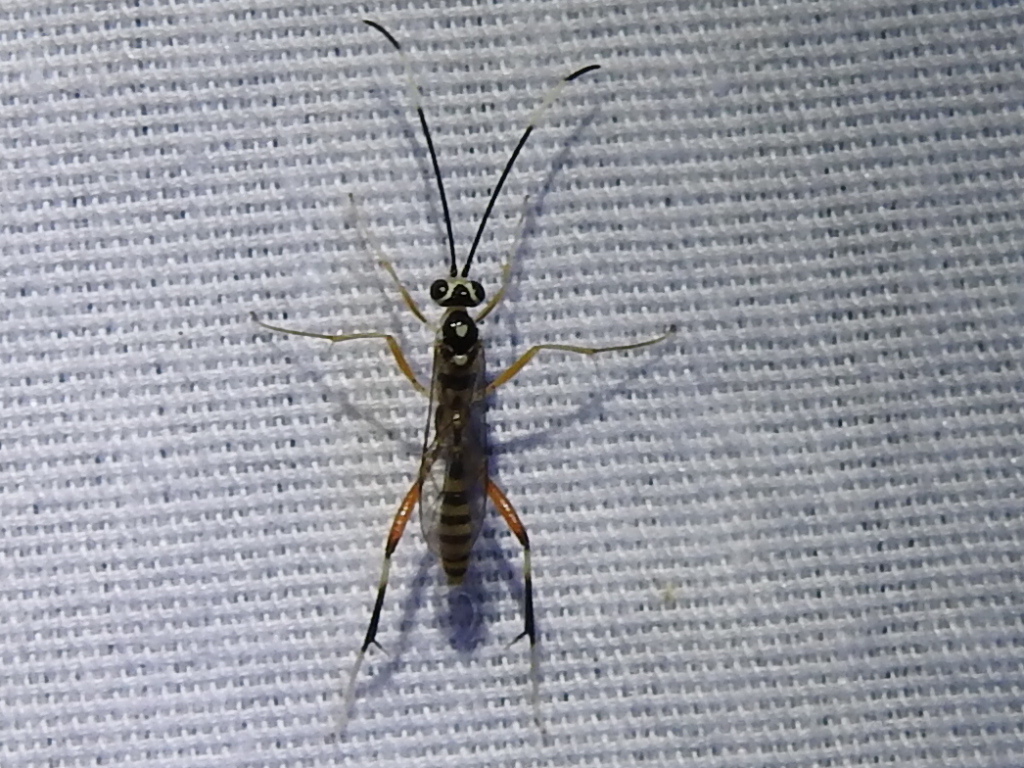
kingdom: Animalia
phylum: Arthropoda
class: Insecta
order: Hymenoptera
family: Ichneumonidae
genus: Messatoporus
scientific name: Messatoporus discoidalis
